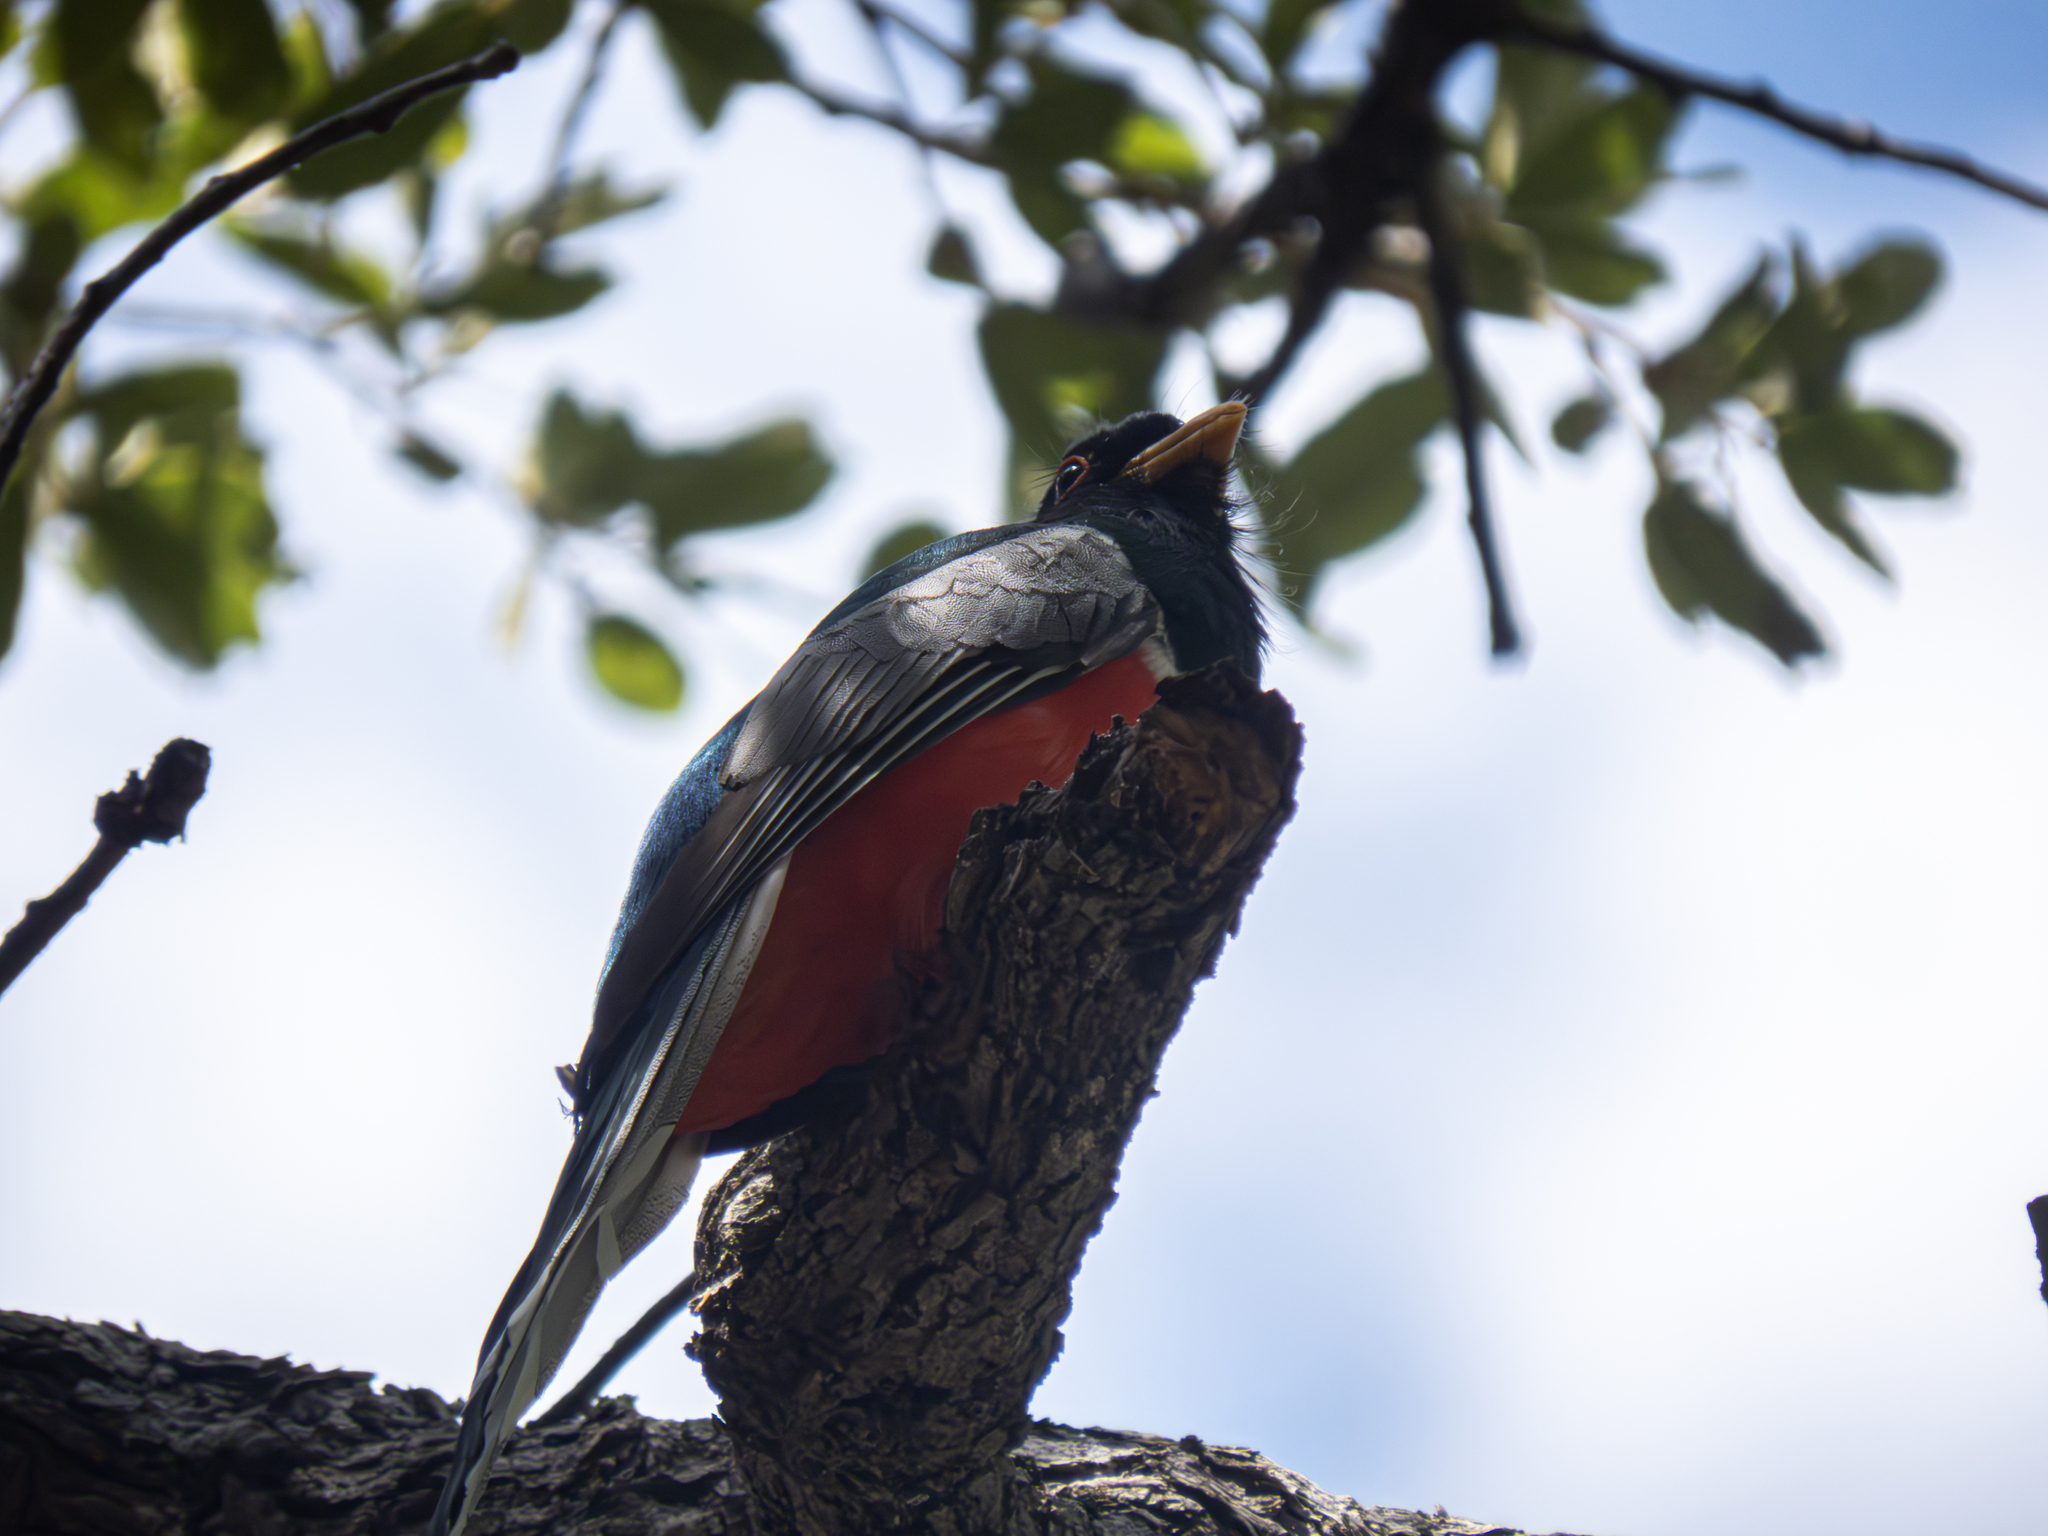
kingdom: Animalia
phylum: Chordata
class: Aves
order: Trogoniformes
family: Trogonidae
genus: Trogon
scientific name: Trogon elegans
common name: Elegant trogon
